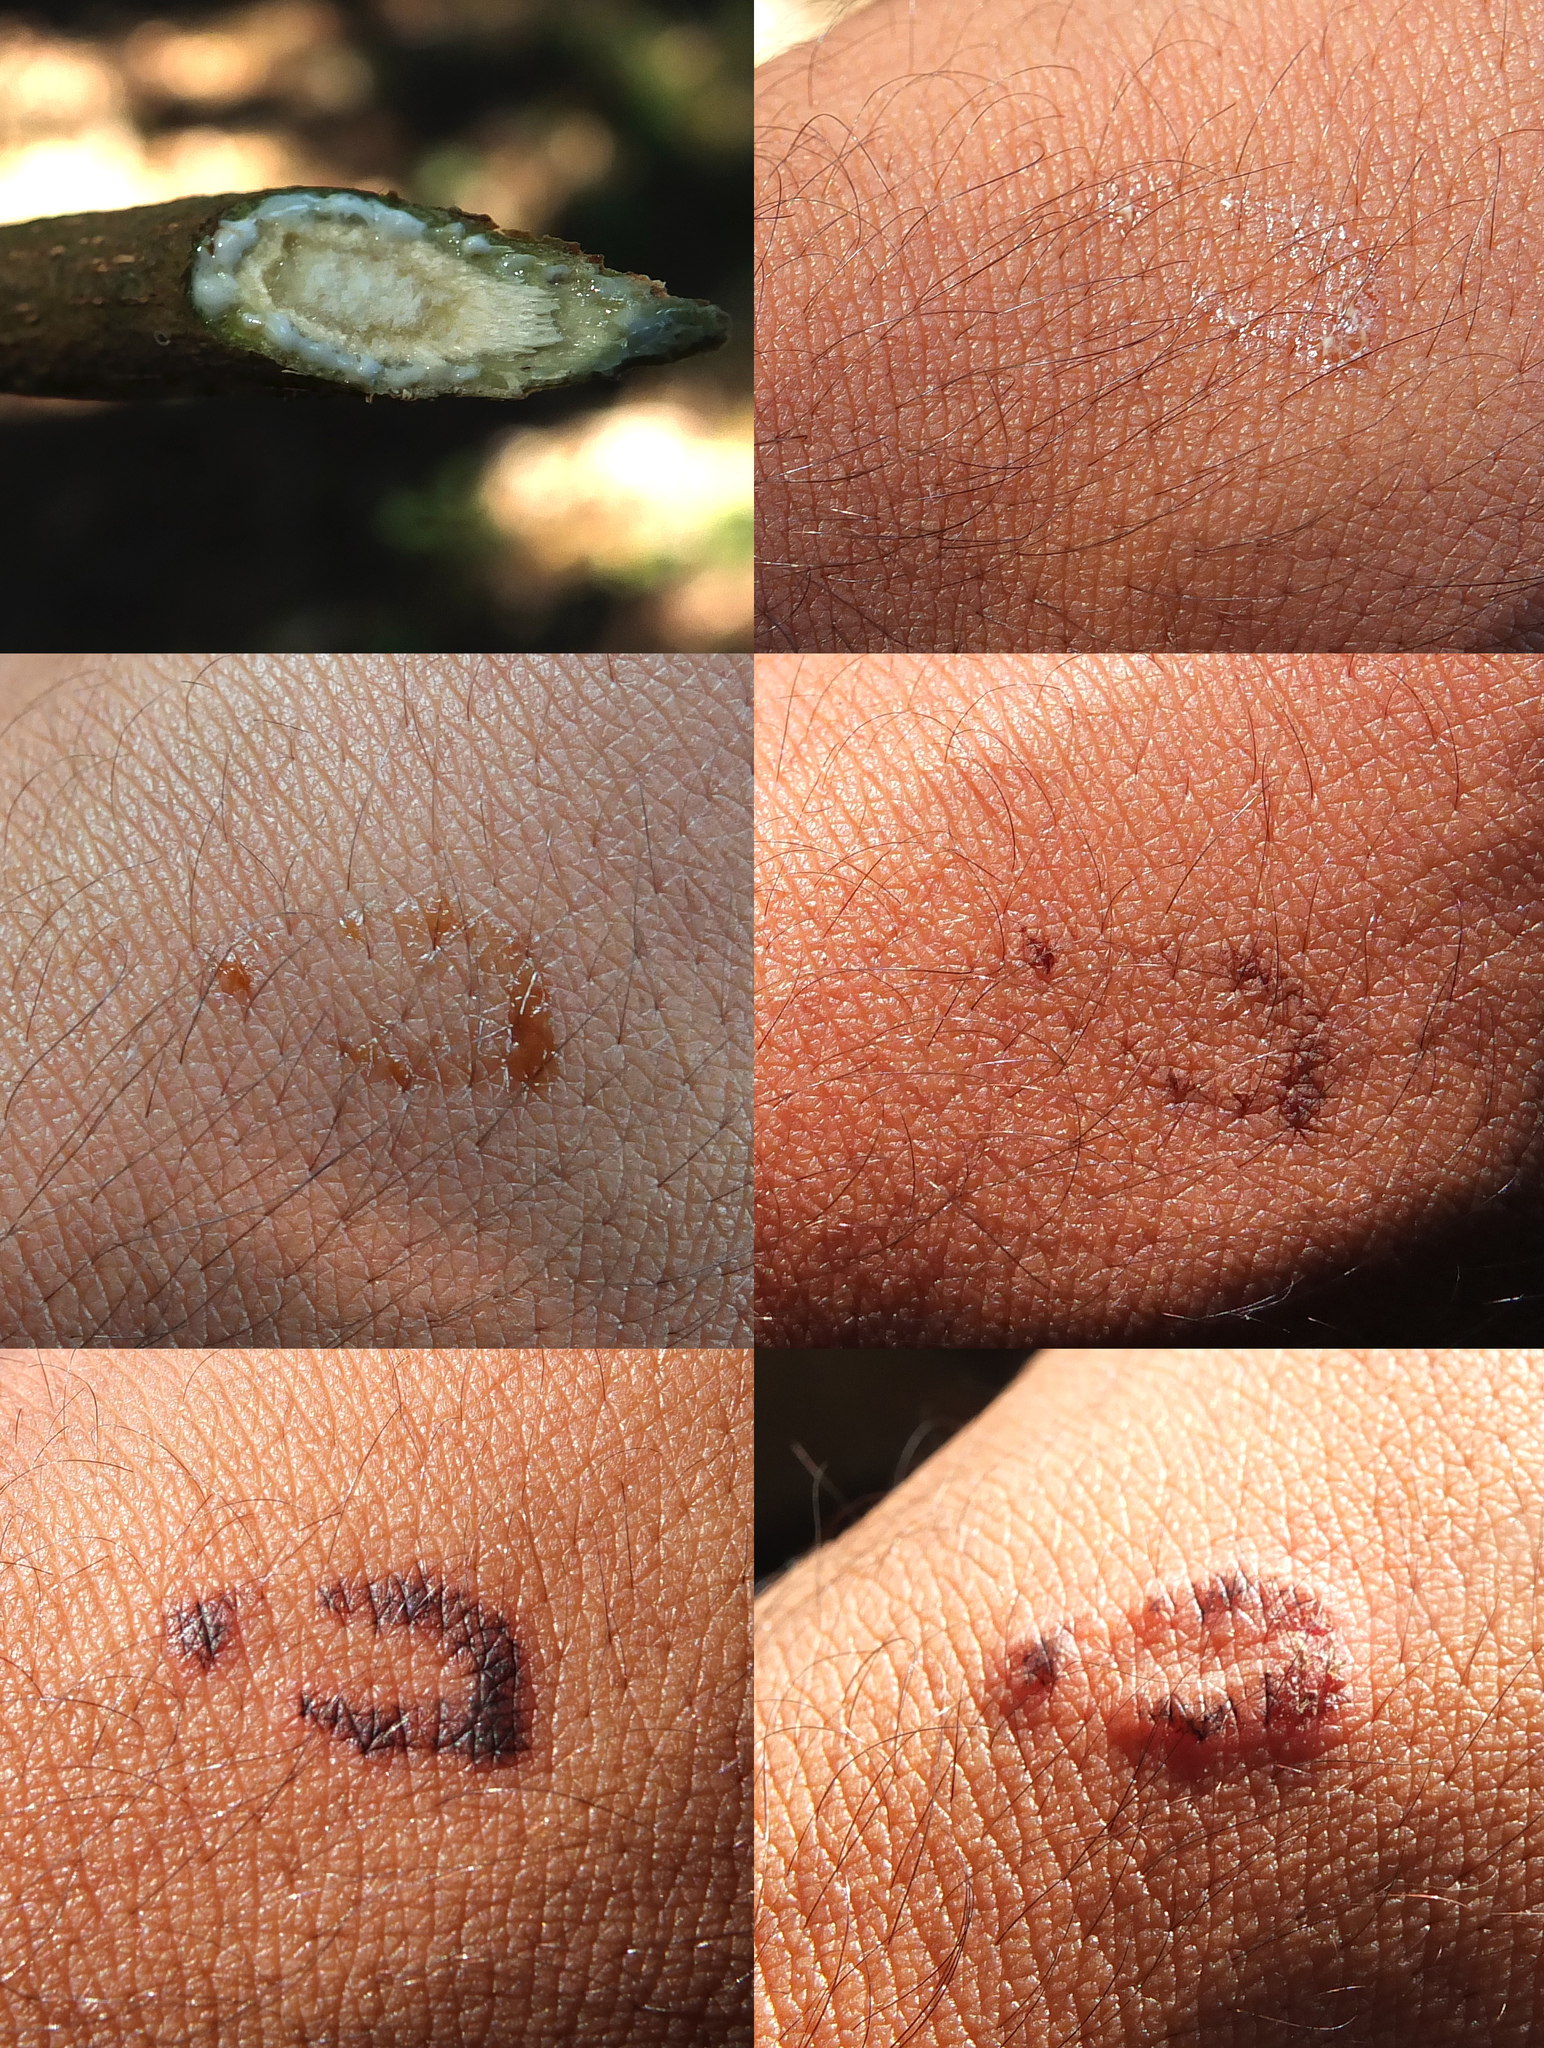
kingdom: Plantae
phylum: Tracheophyta
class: Magnoliopsida
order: Sapindales
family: Anacardiaceae
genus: Holigarna
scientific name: Holigarna nigra
